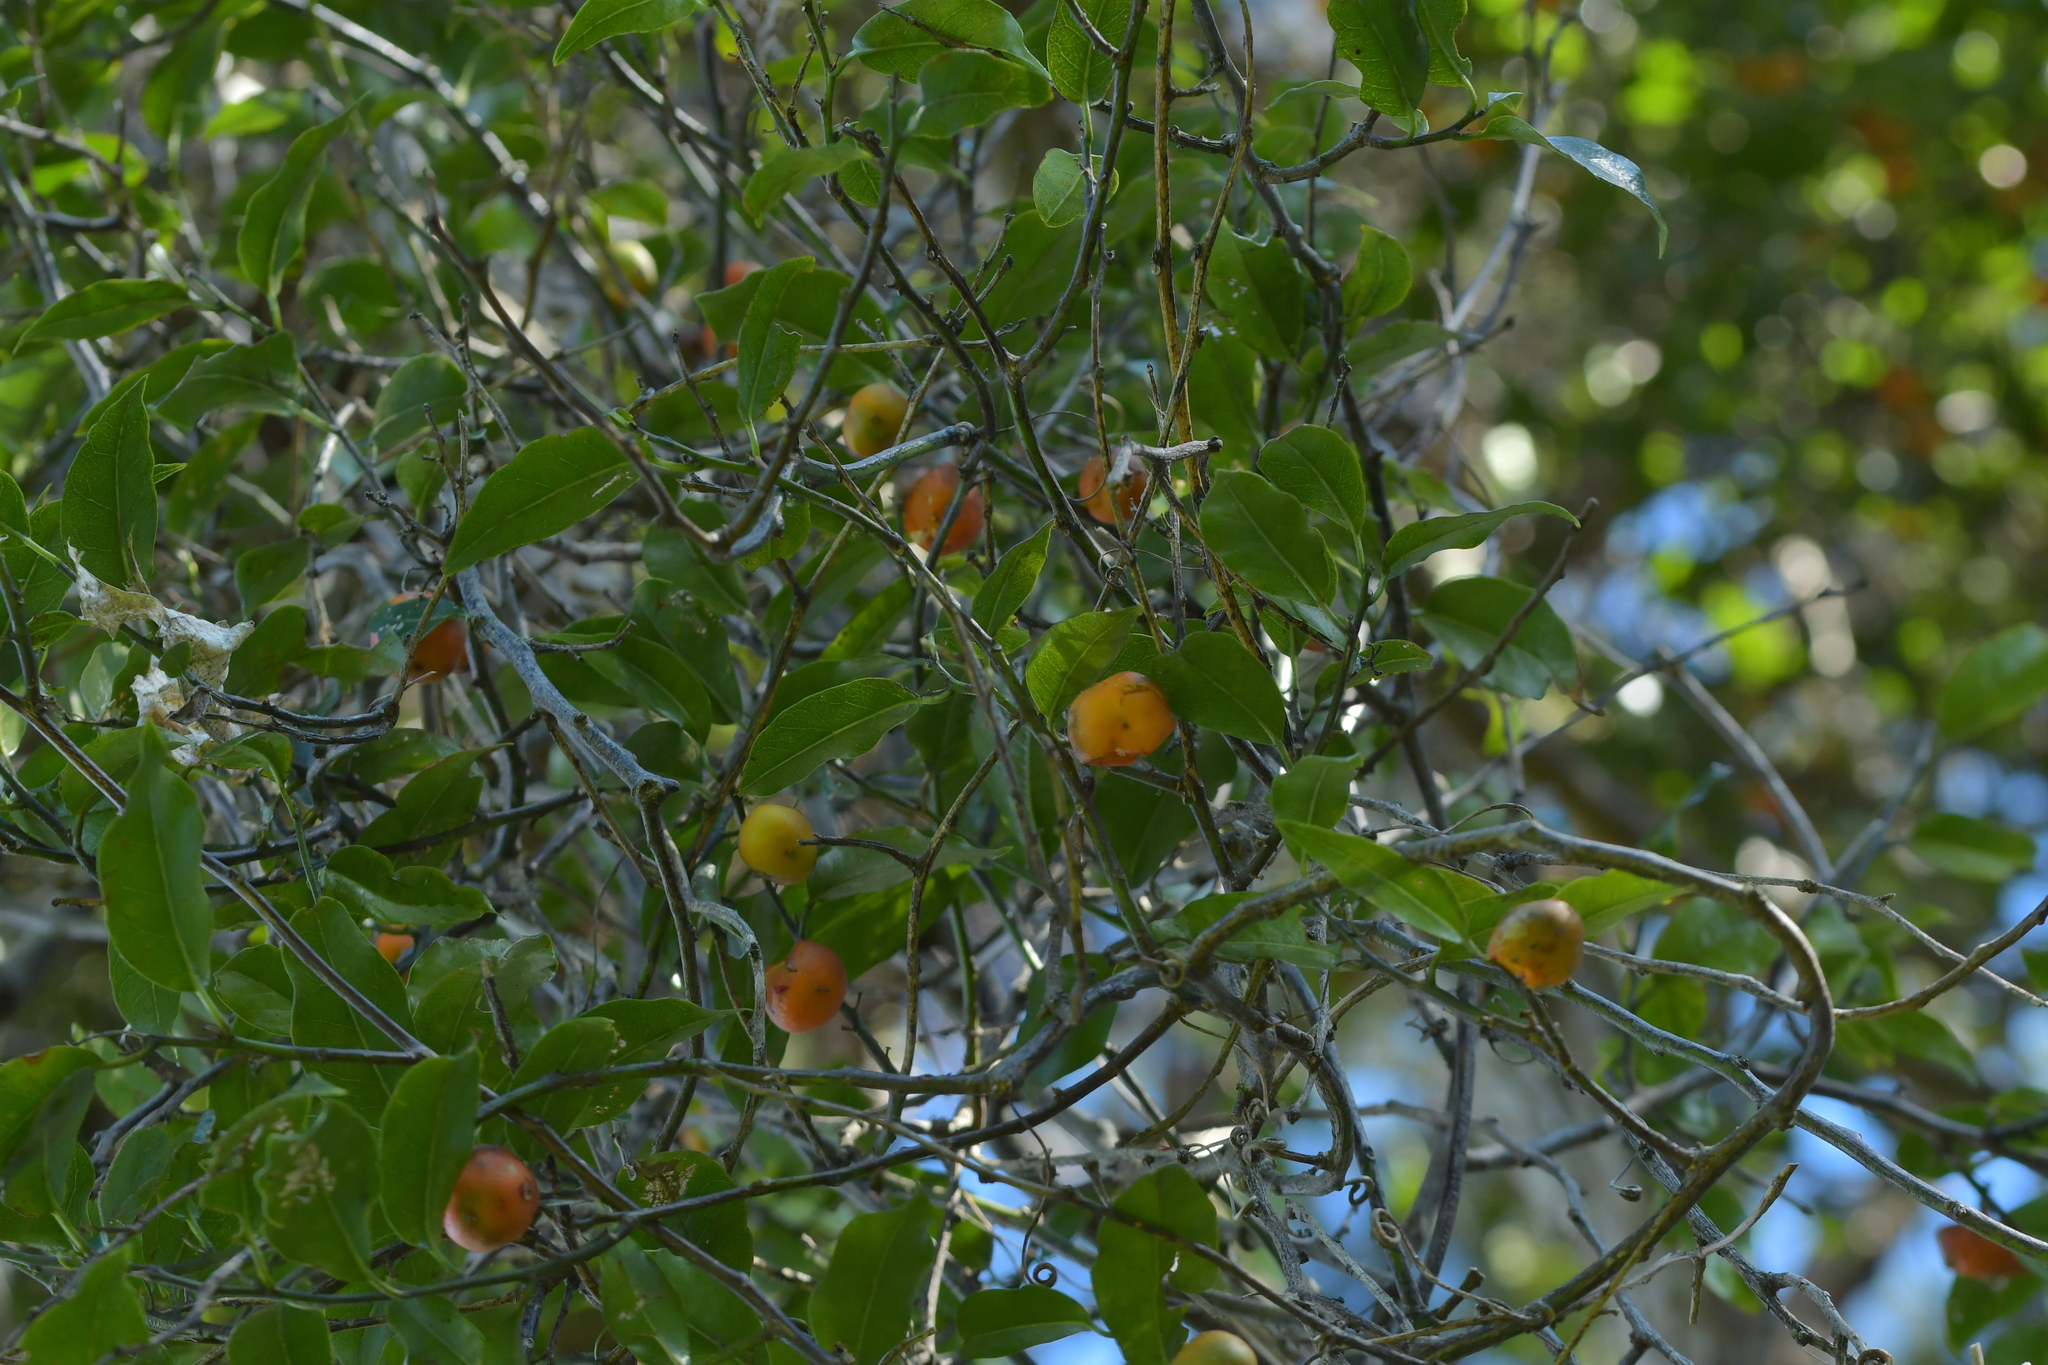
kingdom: Plantae
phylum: Tracheophyta
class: Magnoliopsida
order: Malpighiales
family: Passifloraceae
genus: Passiflora
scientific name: Passiflora tetrandra
